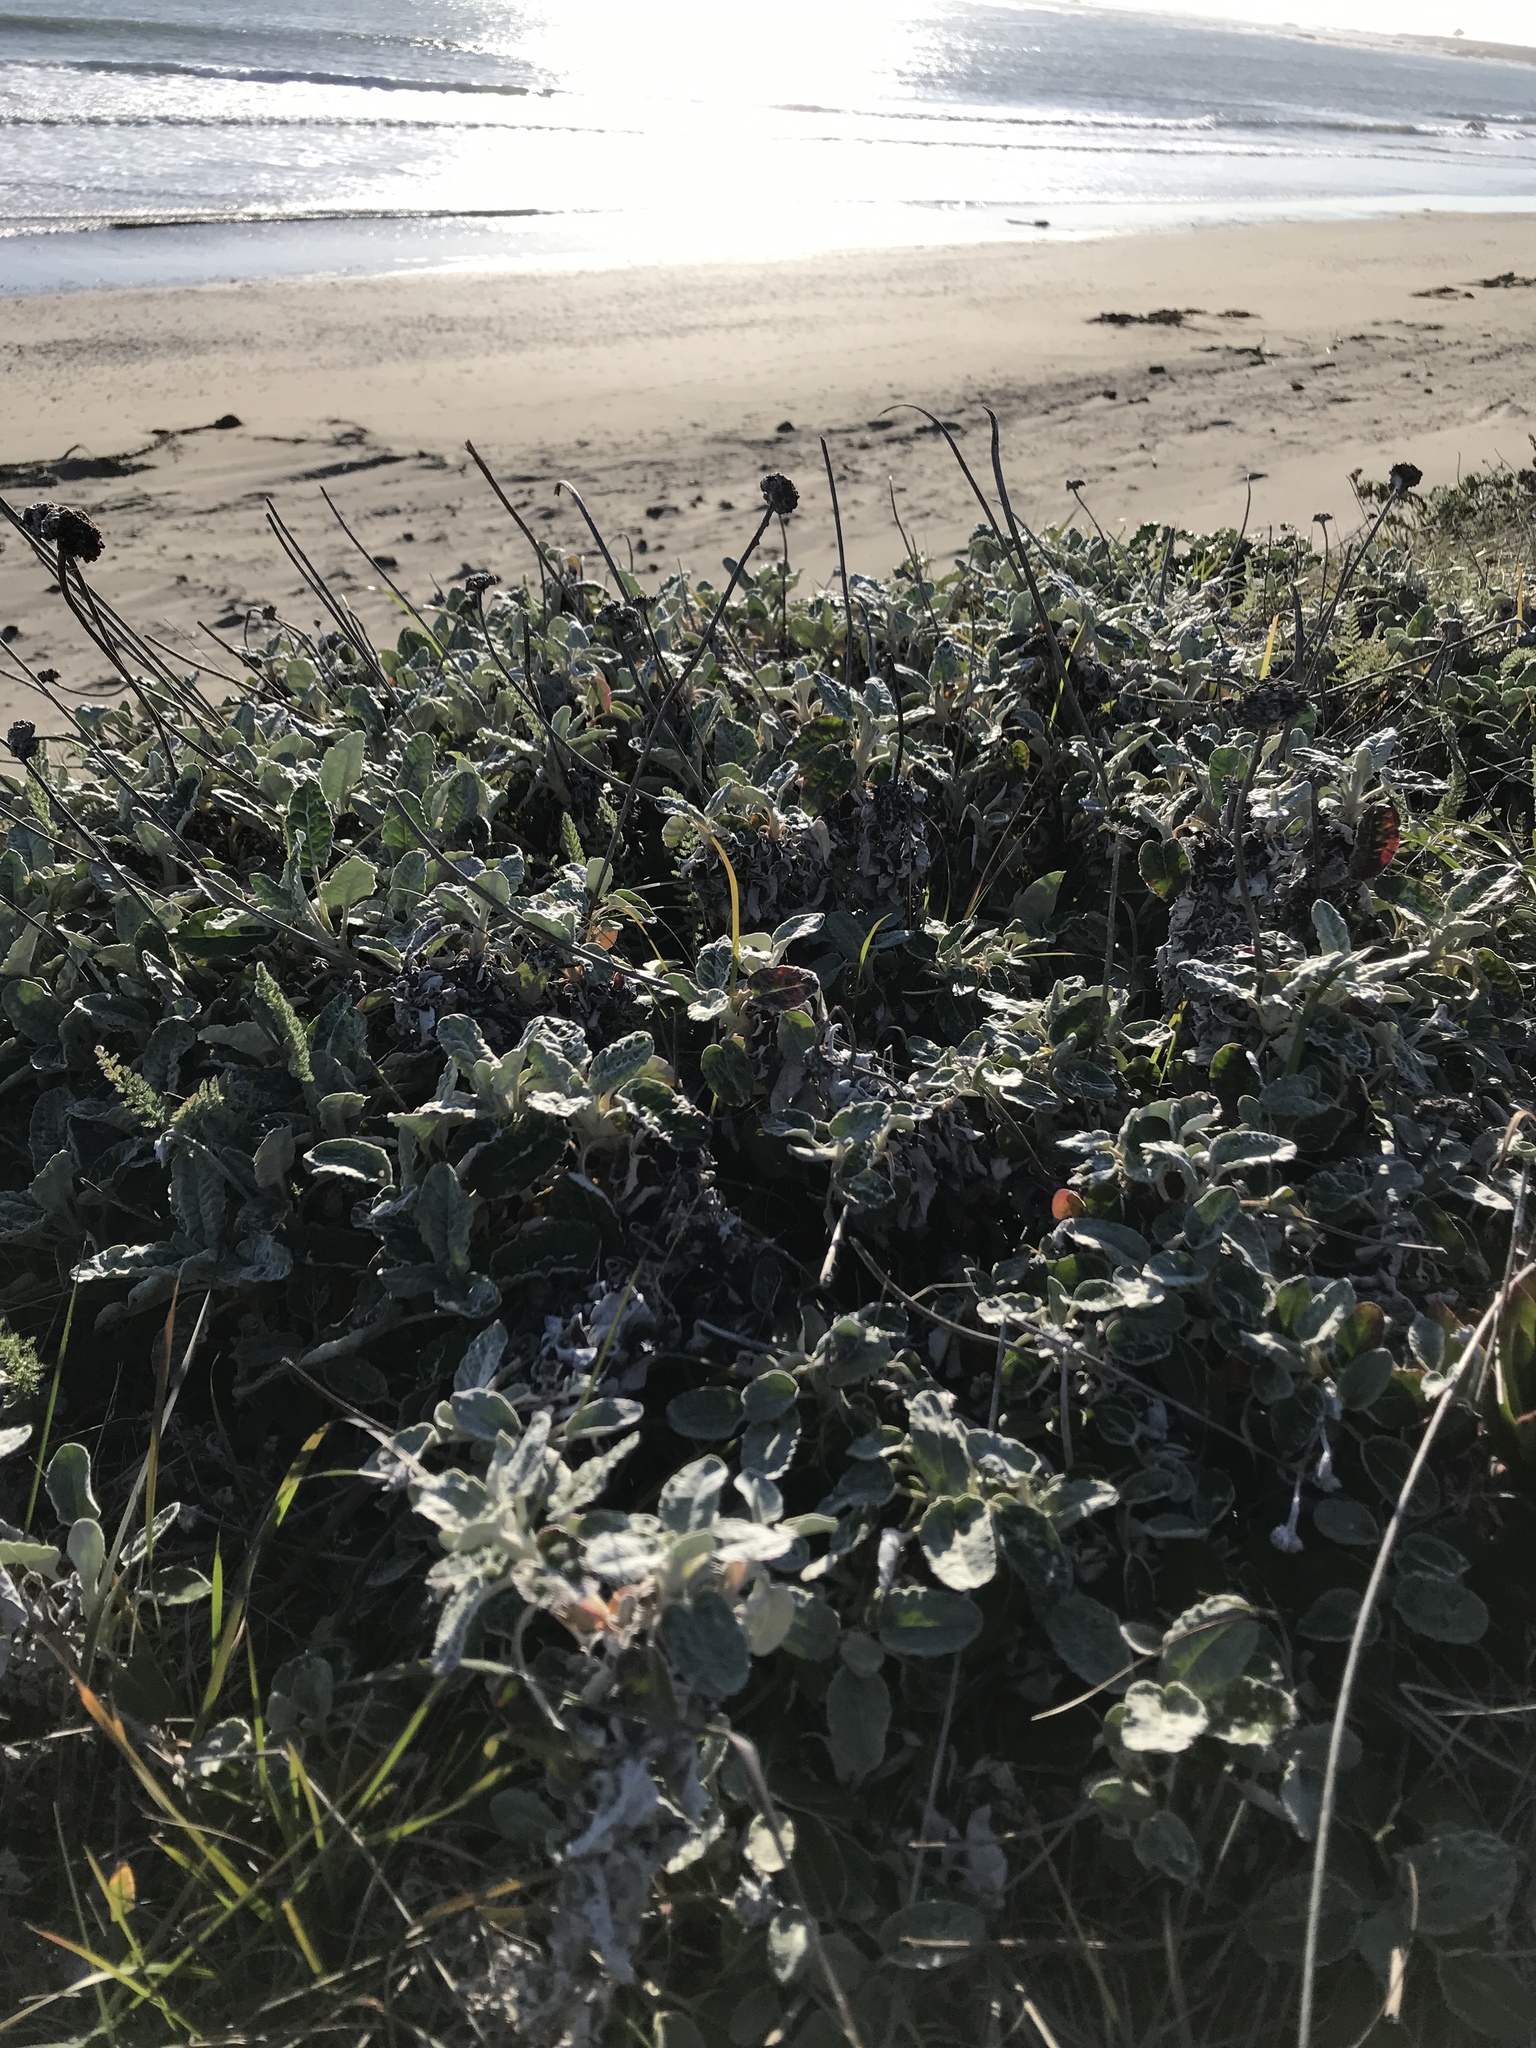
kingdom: Plantae
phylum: Tracheophyta
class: Magnoliopsida
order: Caryophyllales
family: Polygonaceae
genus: Eriogonum
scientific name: Eriogonum latifolium
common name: Seaside wild buckwheat
